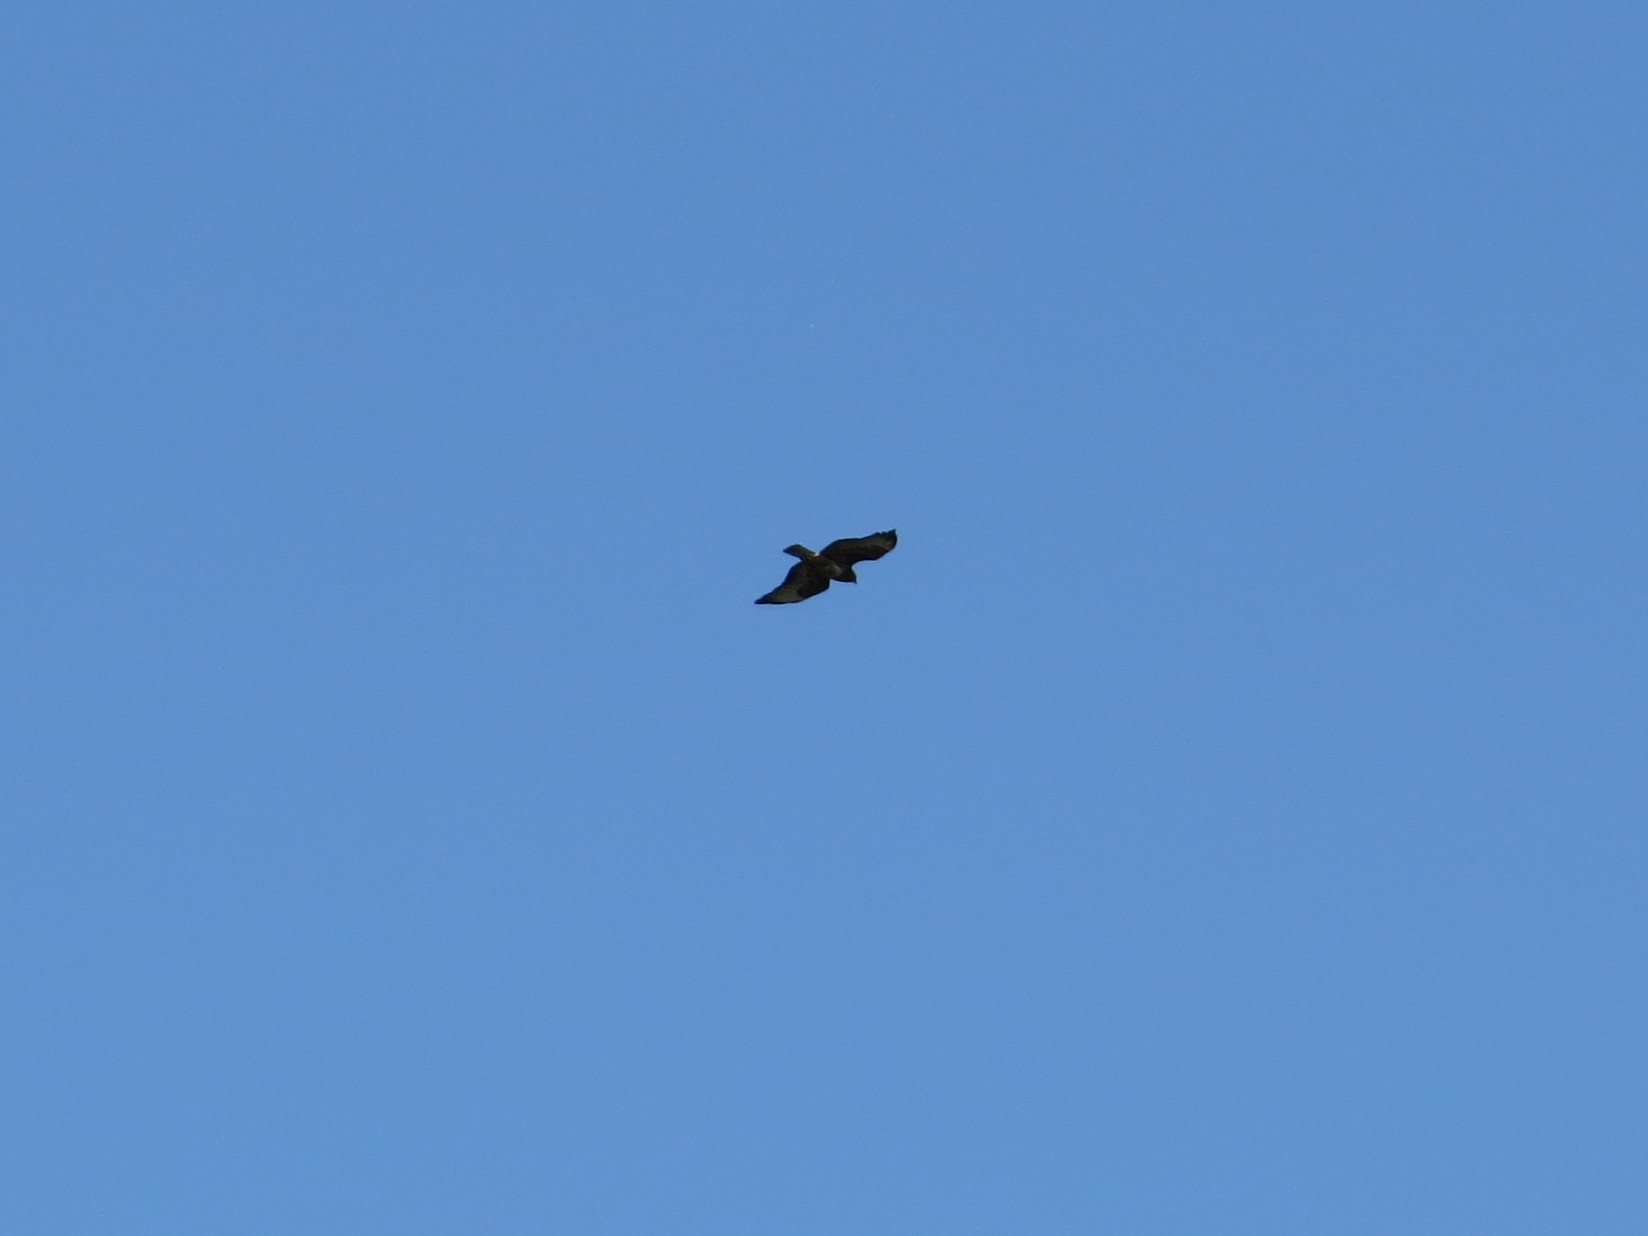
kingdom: Animalia
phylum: Chordata
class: Aves
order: Accipitriformes
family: Accipitridae
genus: Buteo
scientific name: Buteo buteo
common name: Common buzzard
